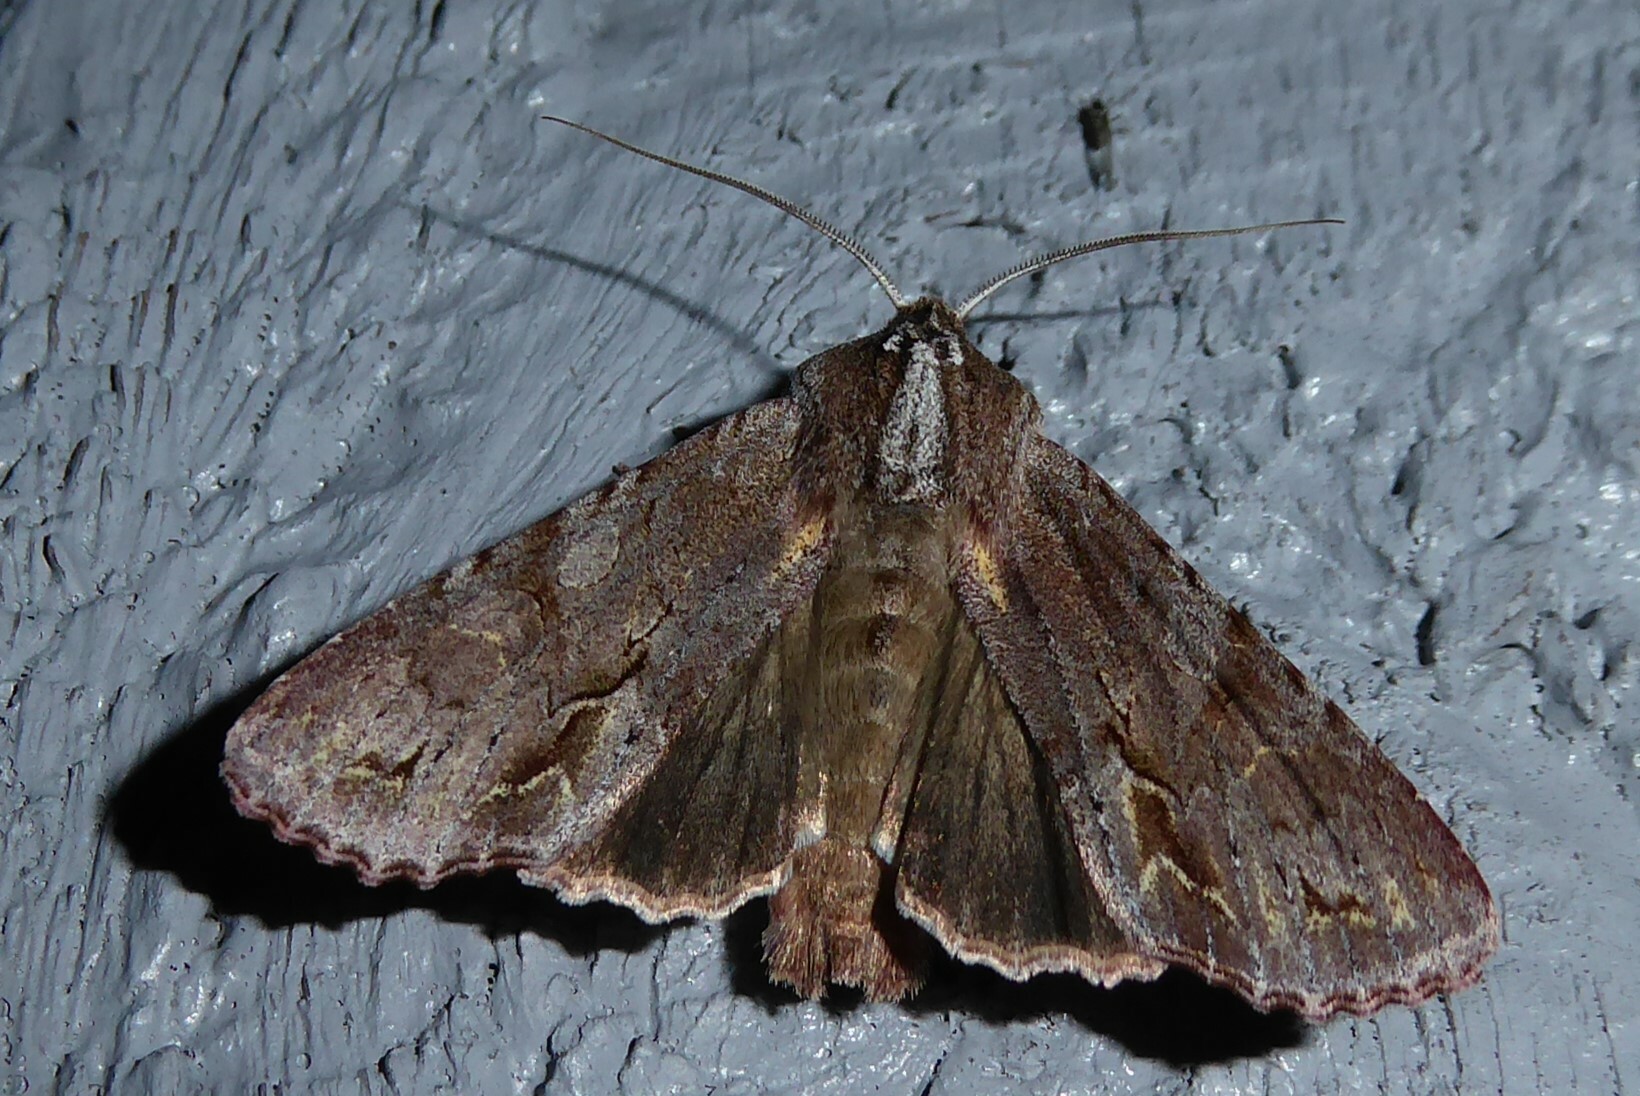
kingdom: Animalia
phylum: Arthropoda
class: Insecta
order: Lepidoptera
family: Noctuidae
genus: Ichneutica
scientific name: Ichneutica
